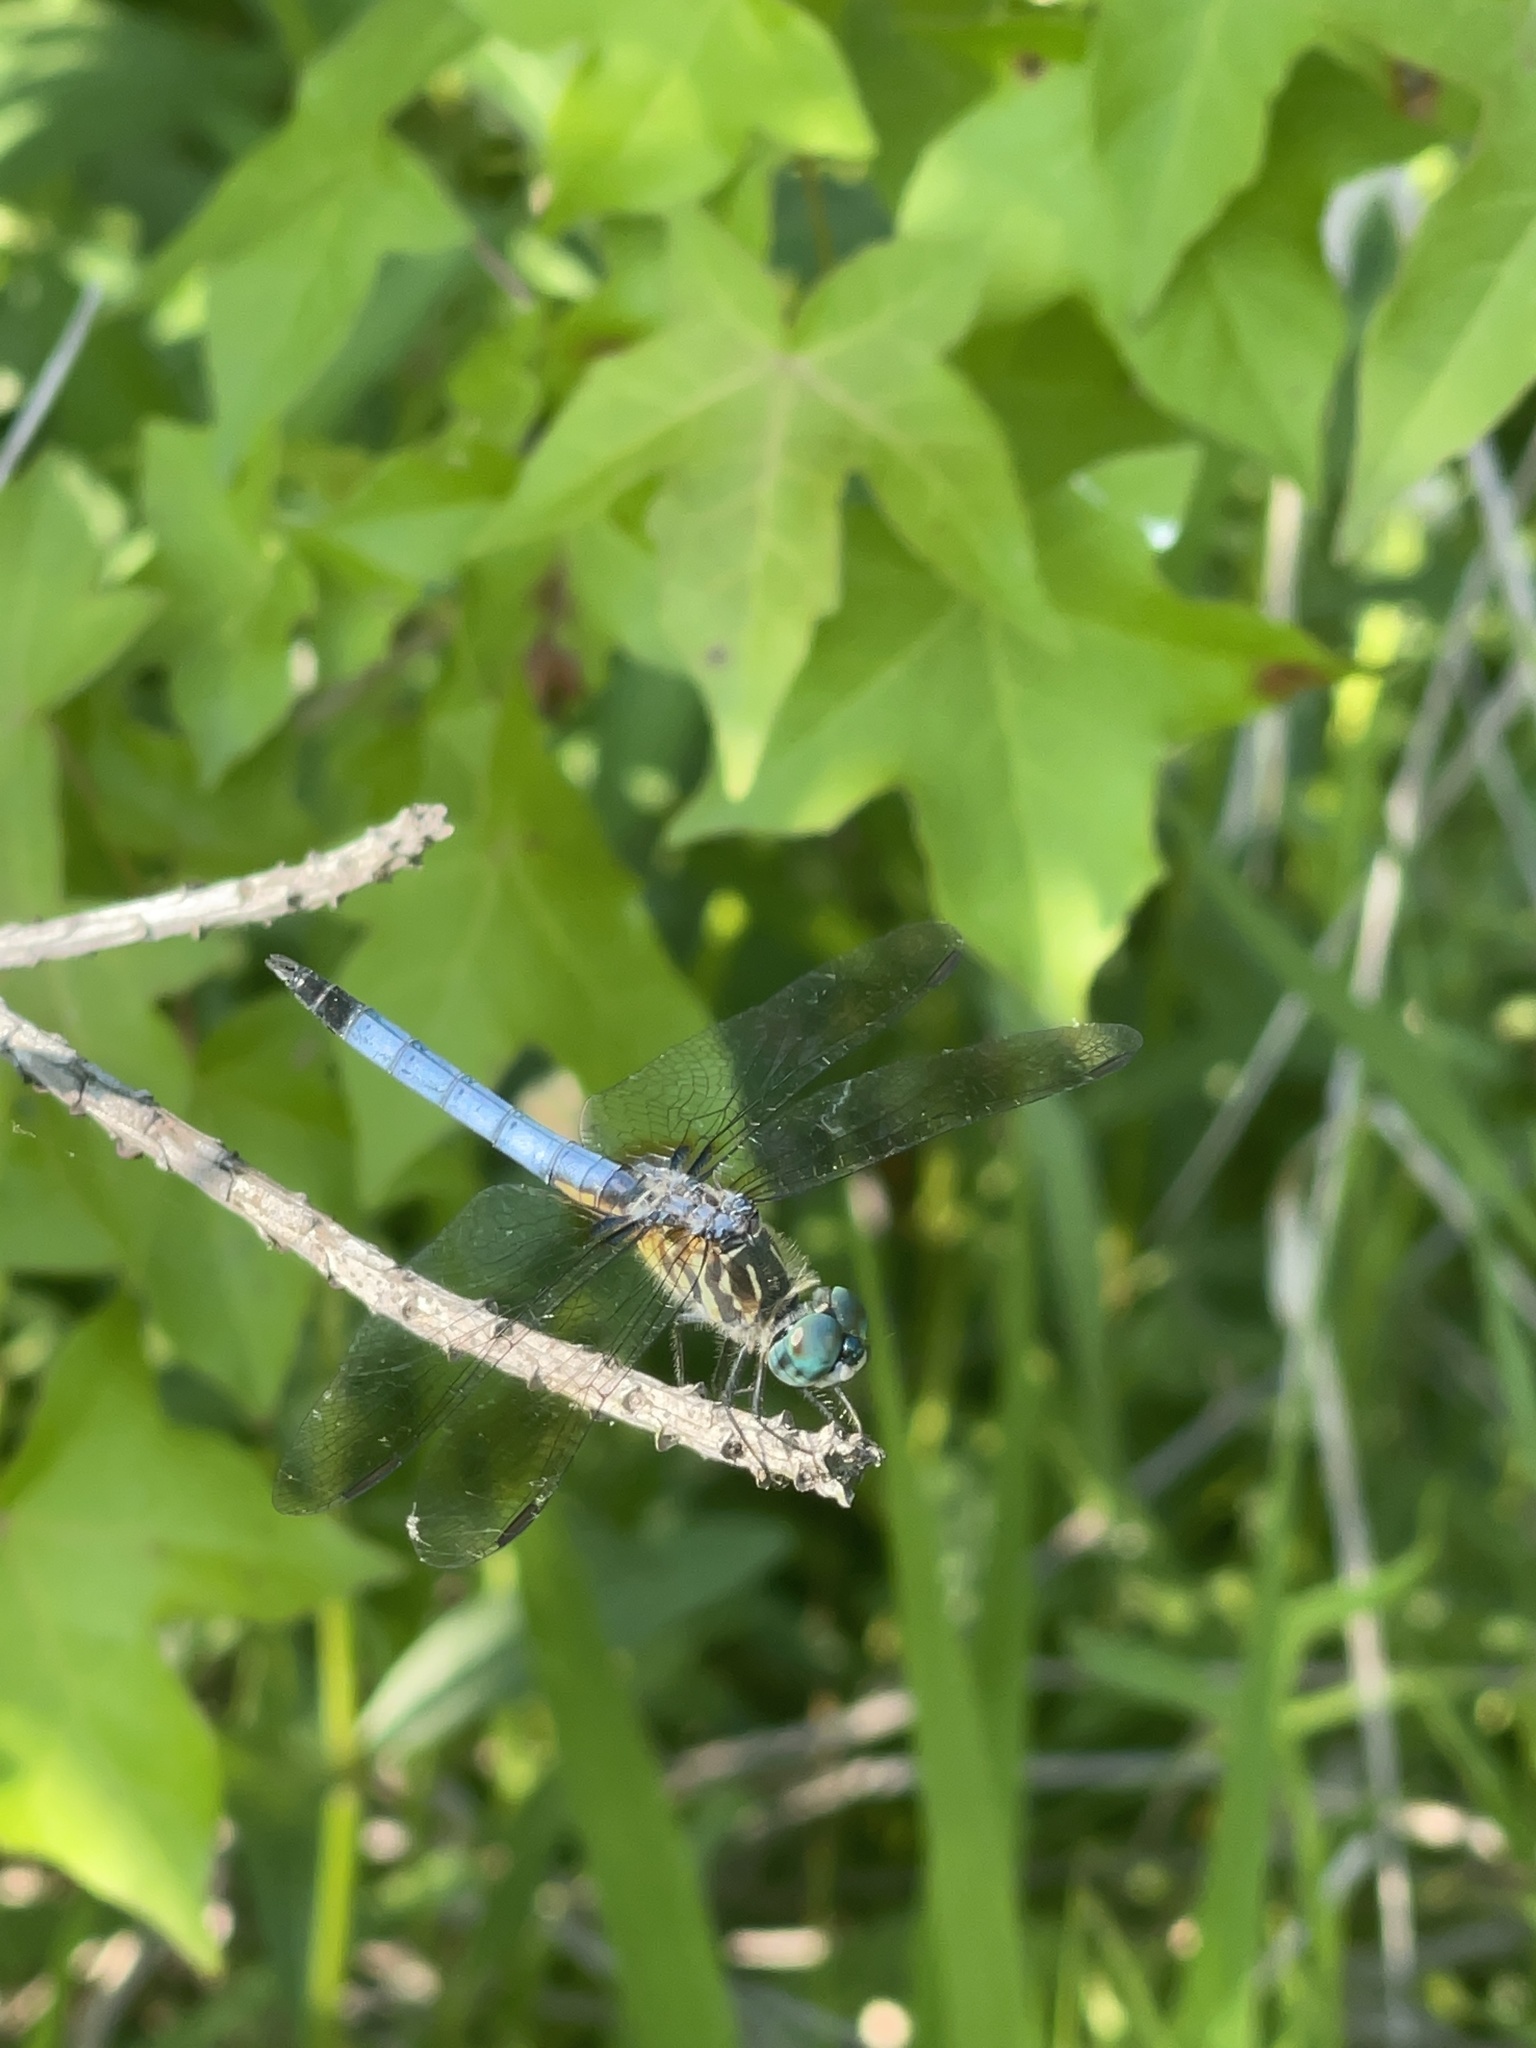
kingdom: Animalia
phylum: Arthropoda
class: Insecta
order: Odonata
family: Libellulidae
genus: Pachydiplax
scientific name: Pachydiplax longipennis
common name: Blue dasher
